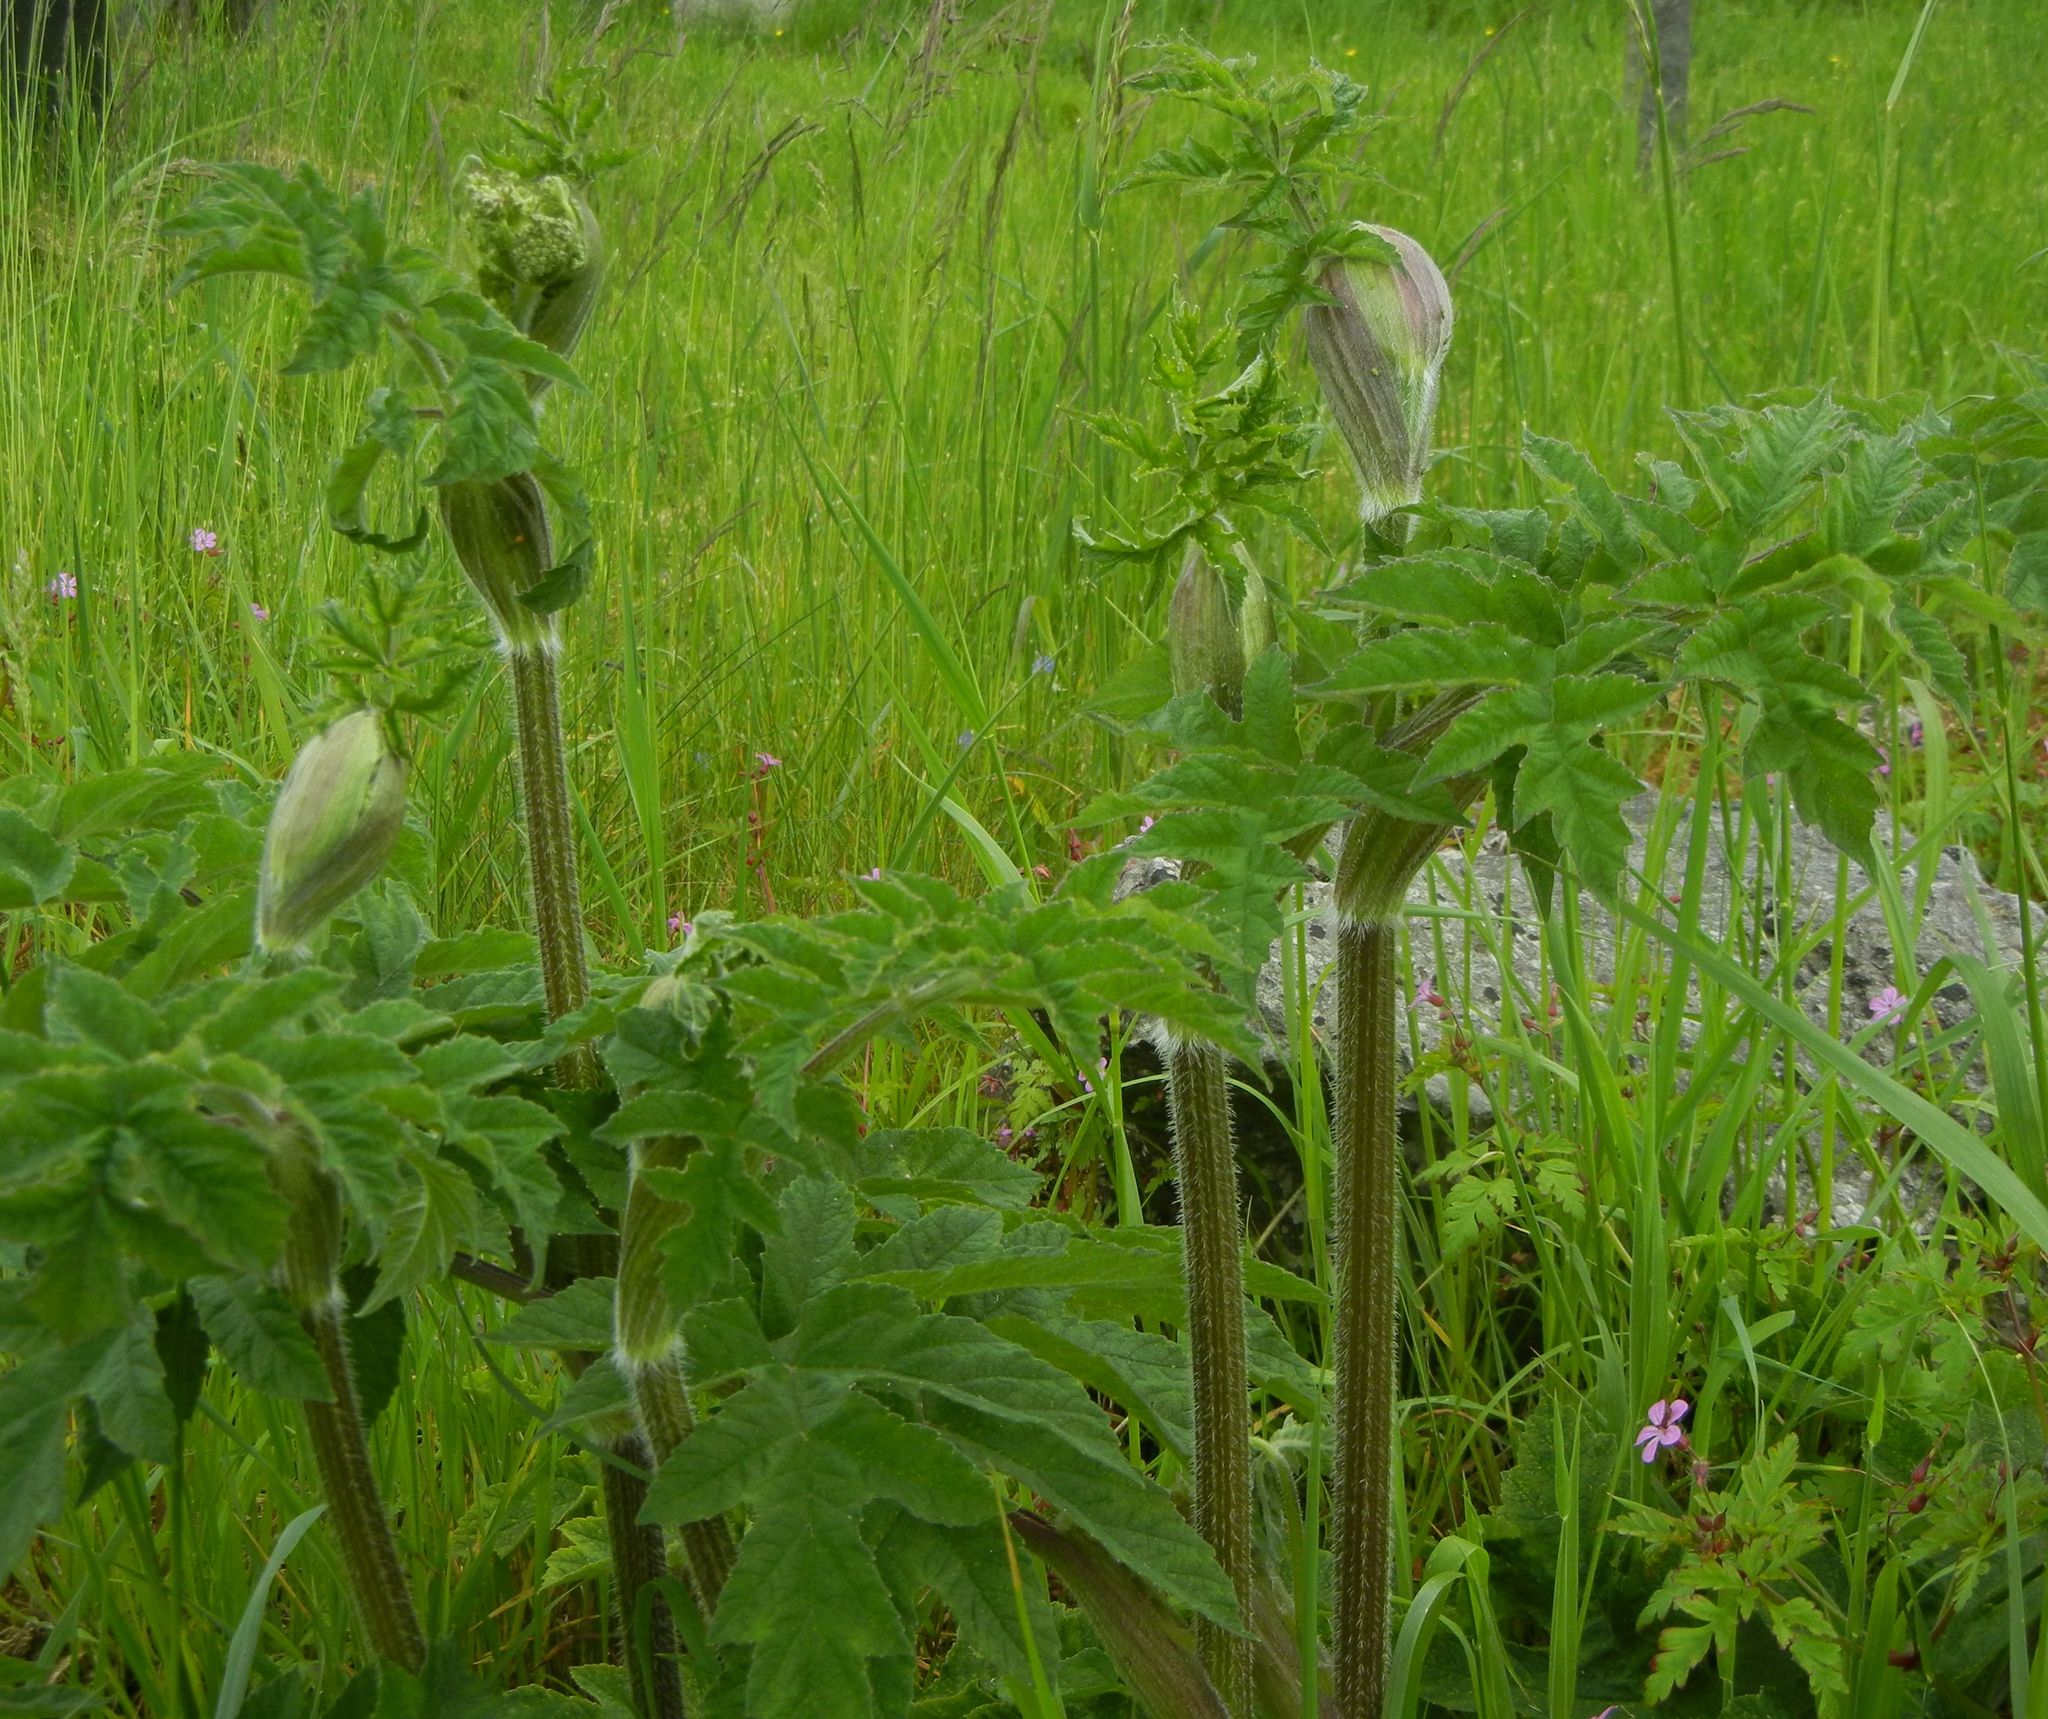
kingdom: Plantae
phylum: Tracheophyta
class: Magnoliopsida
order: Apiales
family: Apiaceae
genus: Heracleum
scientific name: Heracleum sphondylium
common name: Hogweed
